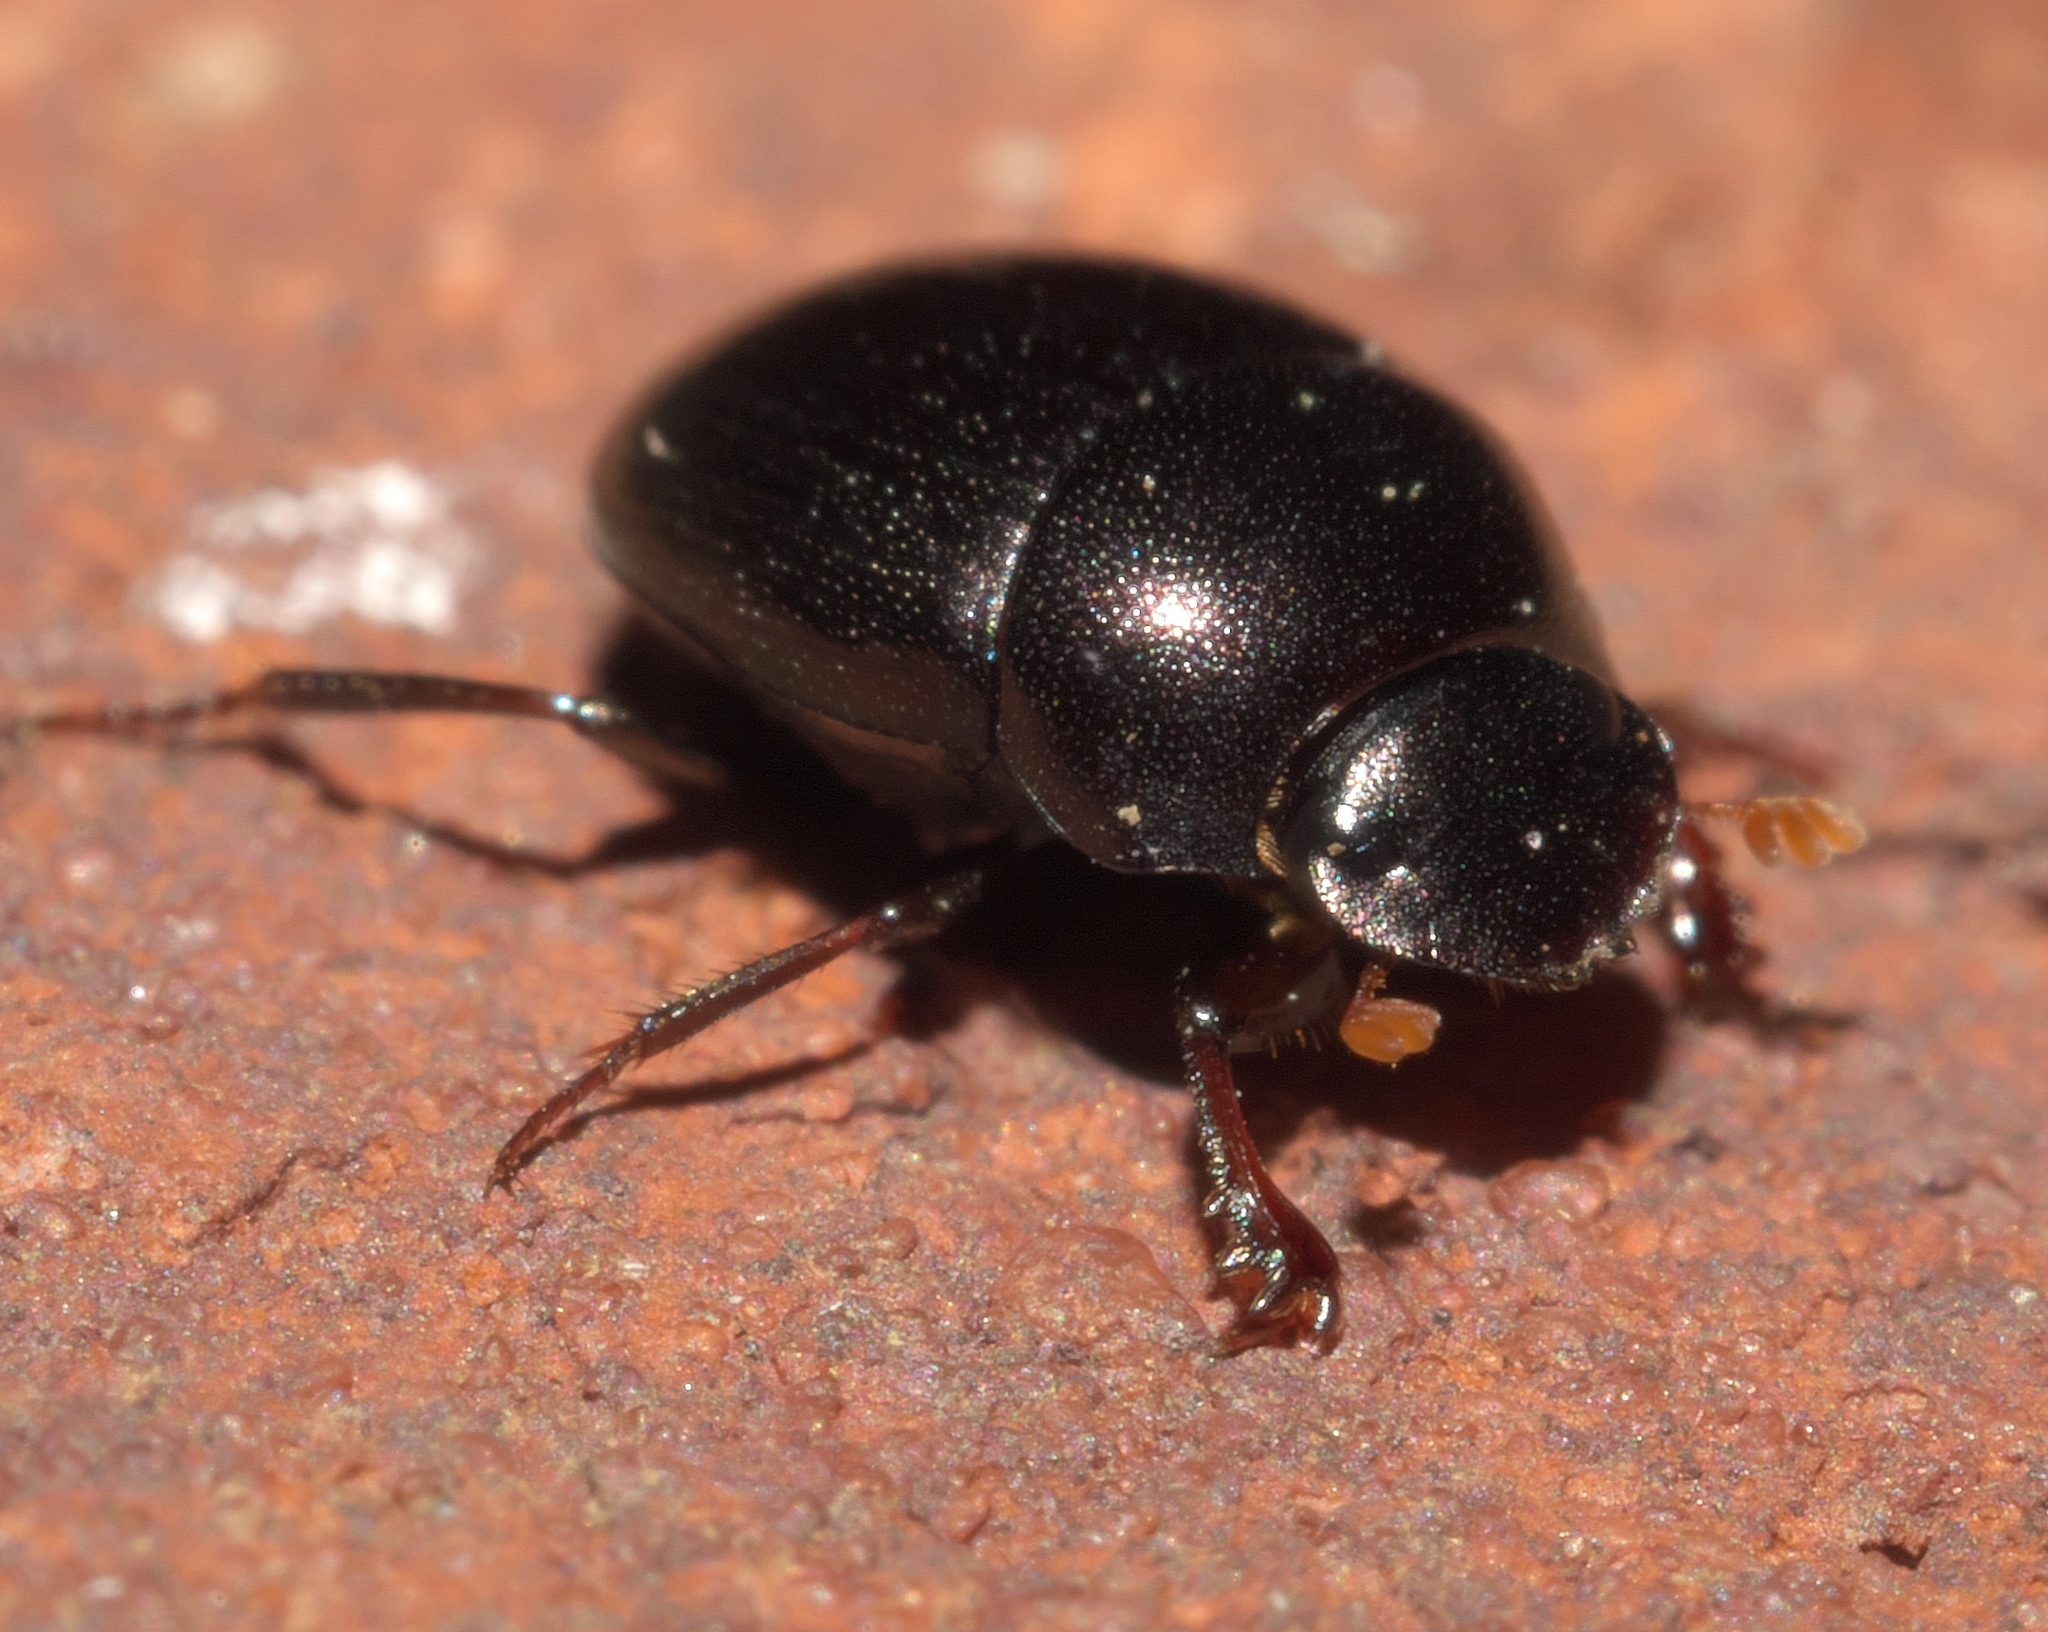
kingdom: Animalia
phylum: Arthropoda
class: Insecta
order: Coleoptera
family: Scarabaeidae
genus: Pseudocanthon
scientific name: Pseudocanthon perplexus
